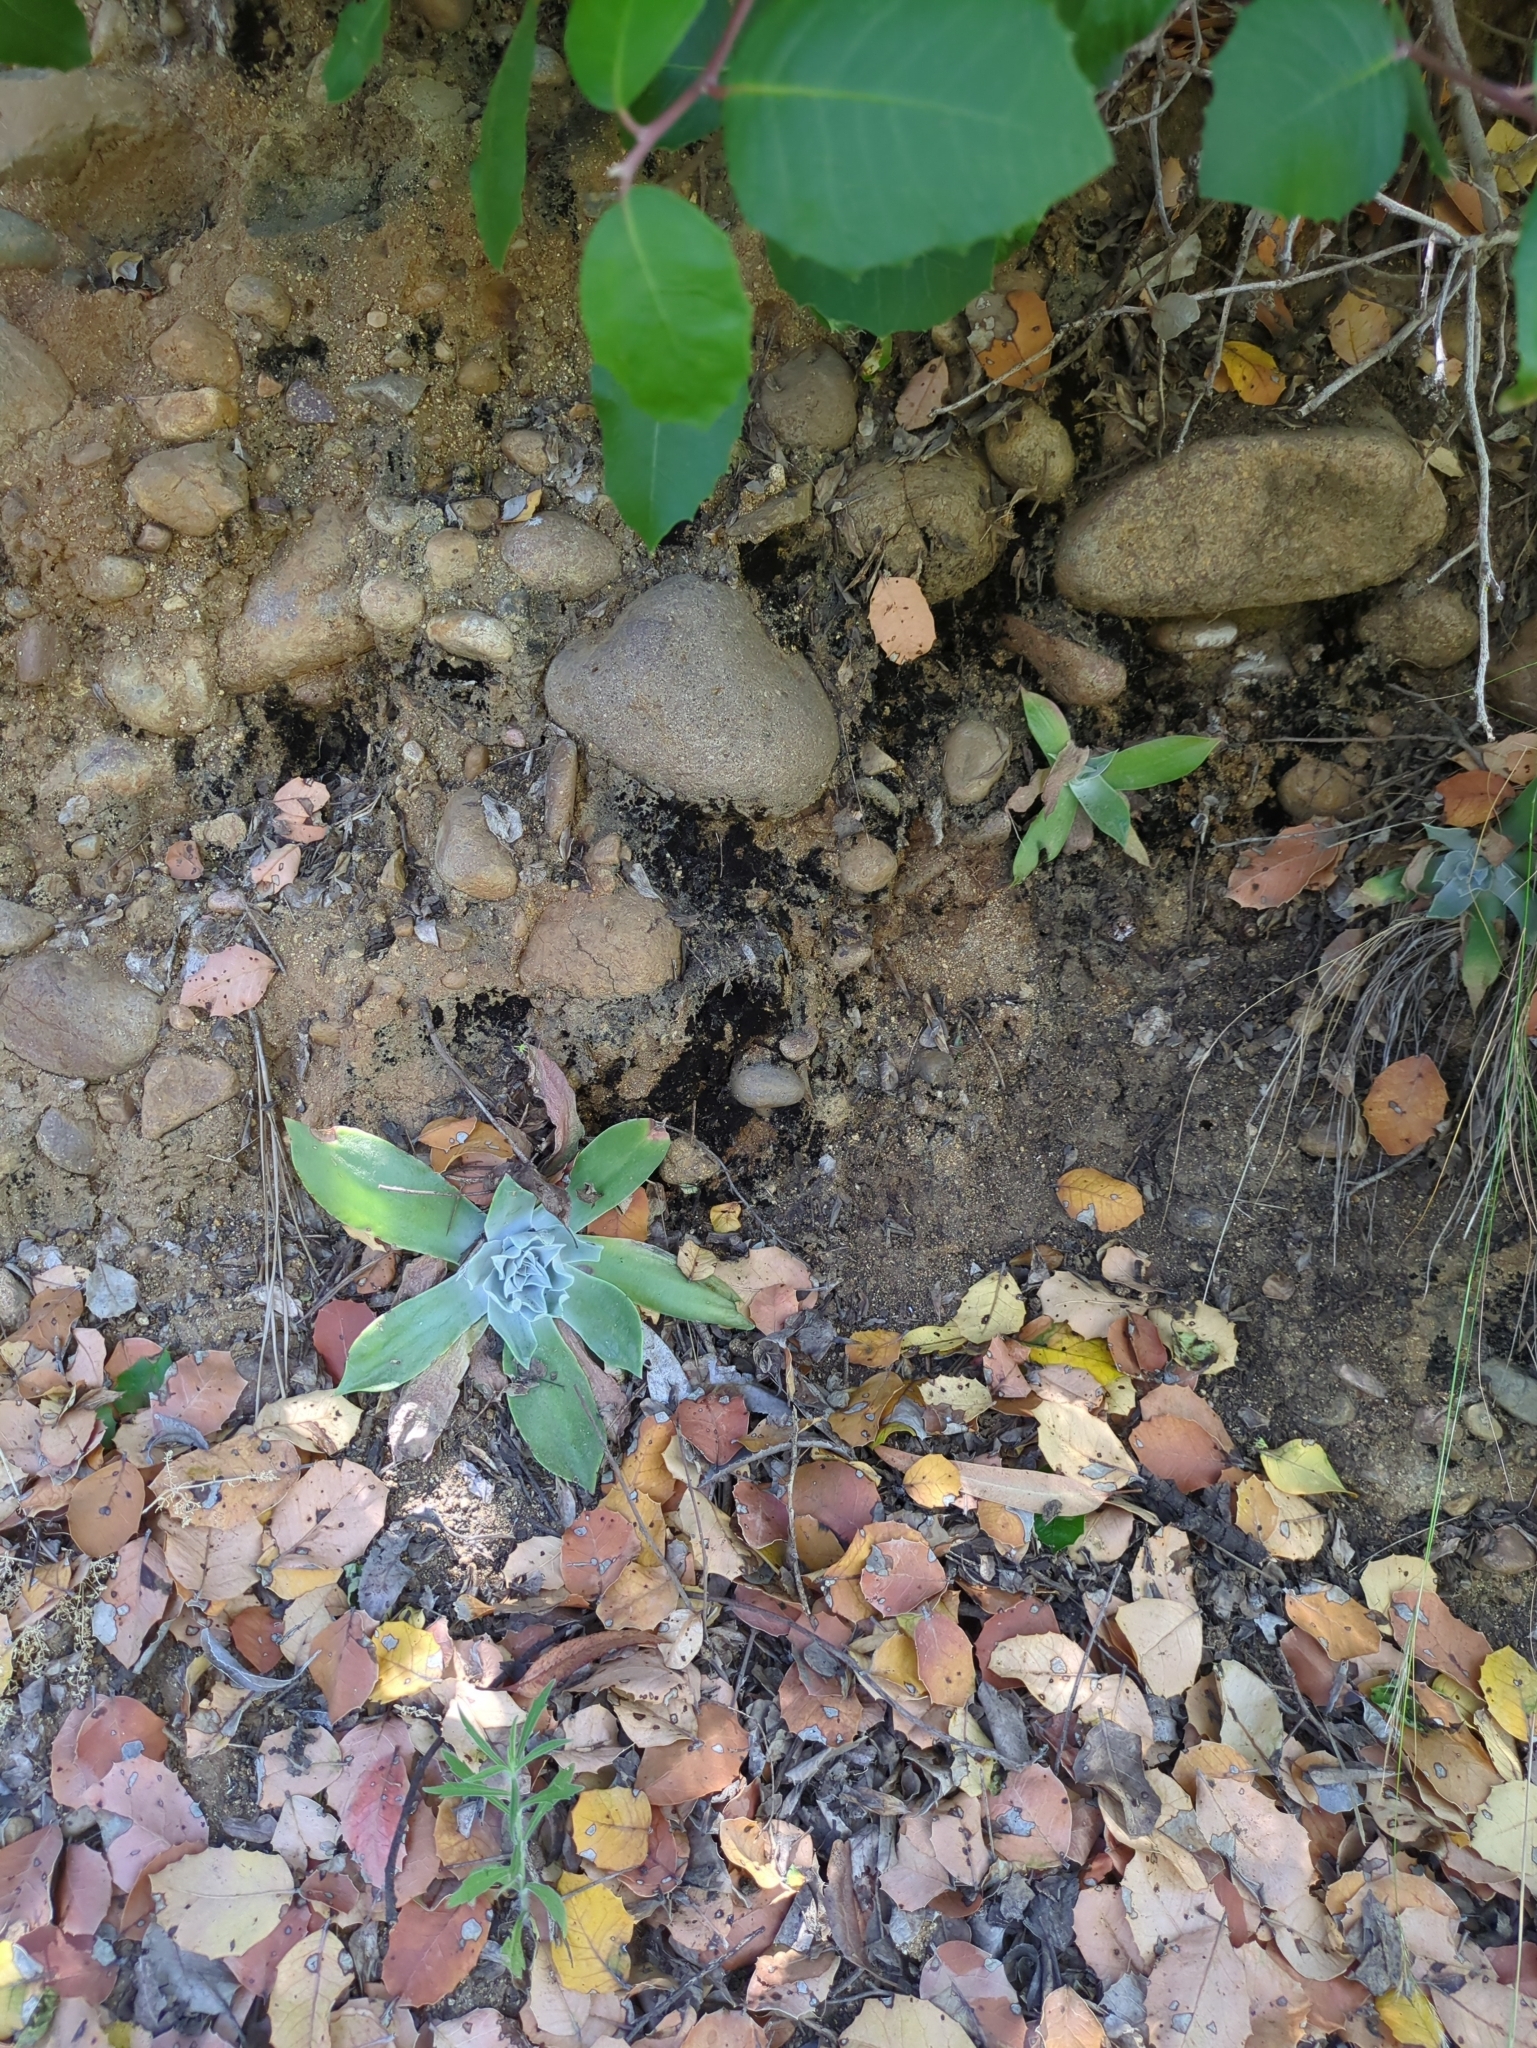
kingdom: Plantae
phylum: Tracheophyta
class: Magnoliopsida
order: Saxifragales
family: Crassulaceae
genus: Dudleya
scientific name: Dudleya pulverulenta
